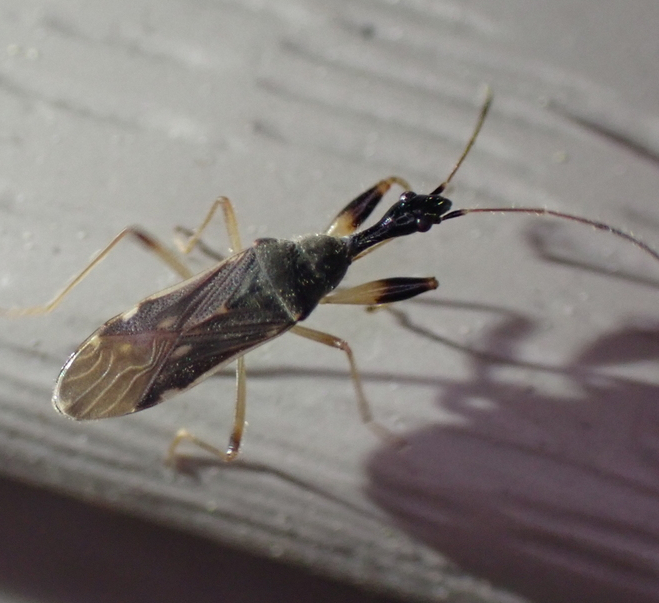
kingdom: Animalia
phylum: Arthropoda
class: Insecta
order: Hemiptera
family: Rhyparochromidae
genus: Myodocha
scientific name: Myodocha serripes
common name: Long-necked seed bug
